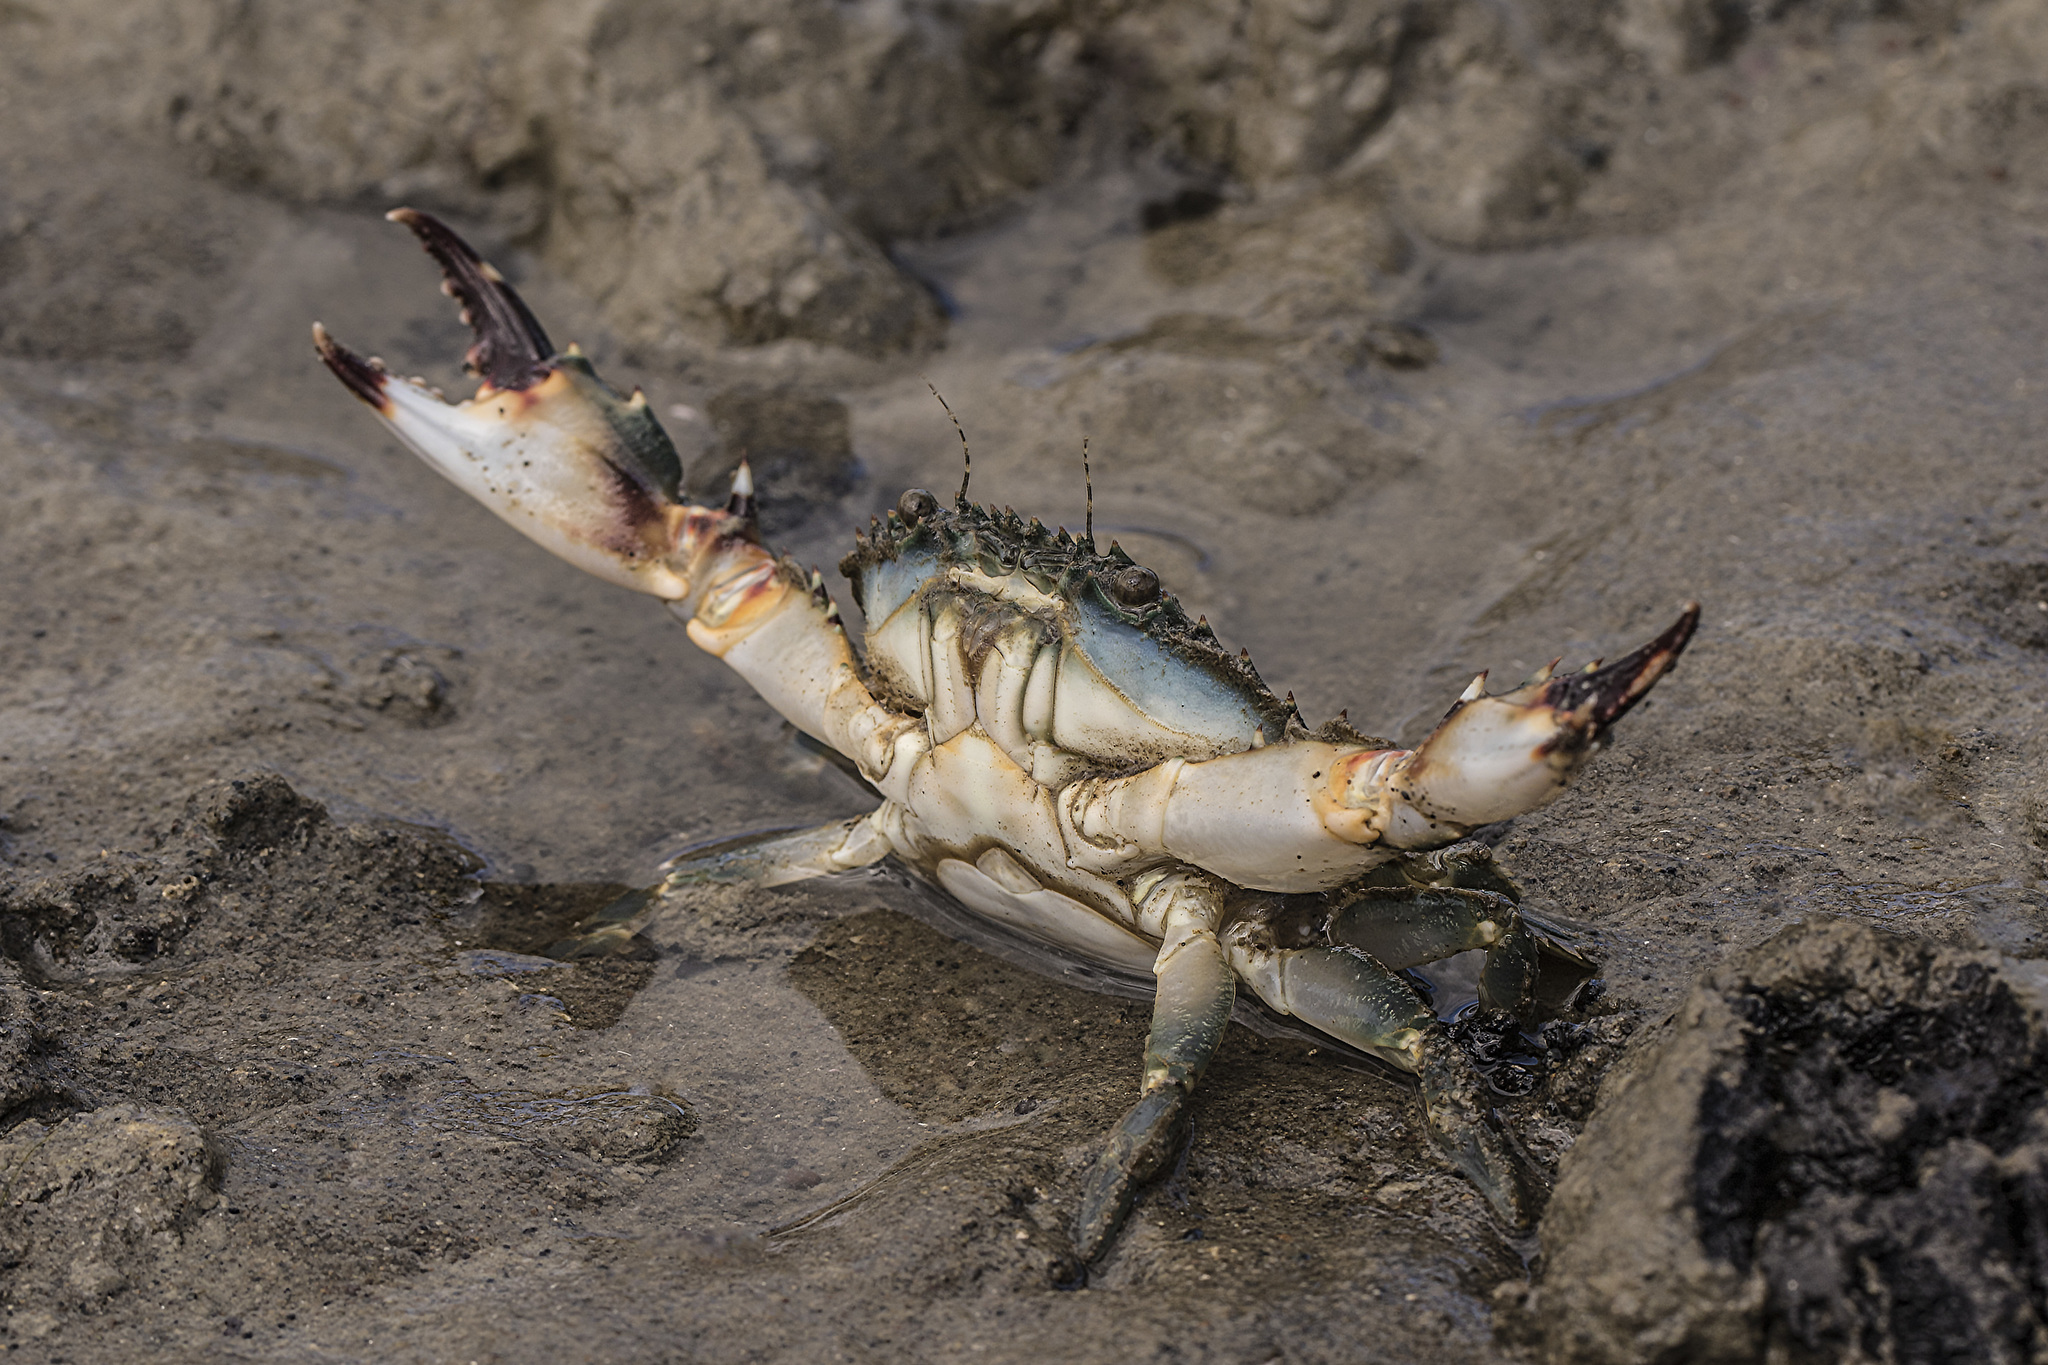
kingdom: Animalia
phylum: Arthropoda
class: Malacostraca
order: Decapoda
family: Portunidae
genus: Charybdis
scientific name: Charybdis japonica
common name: Asian paddle crab
